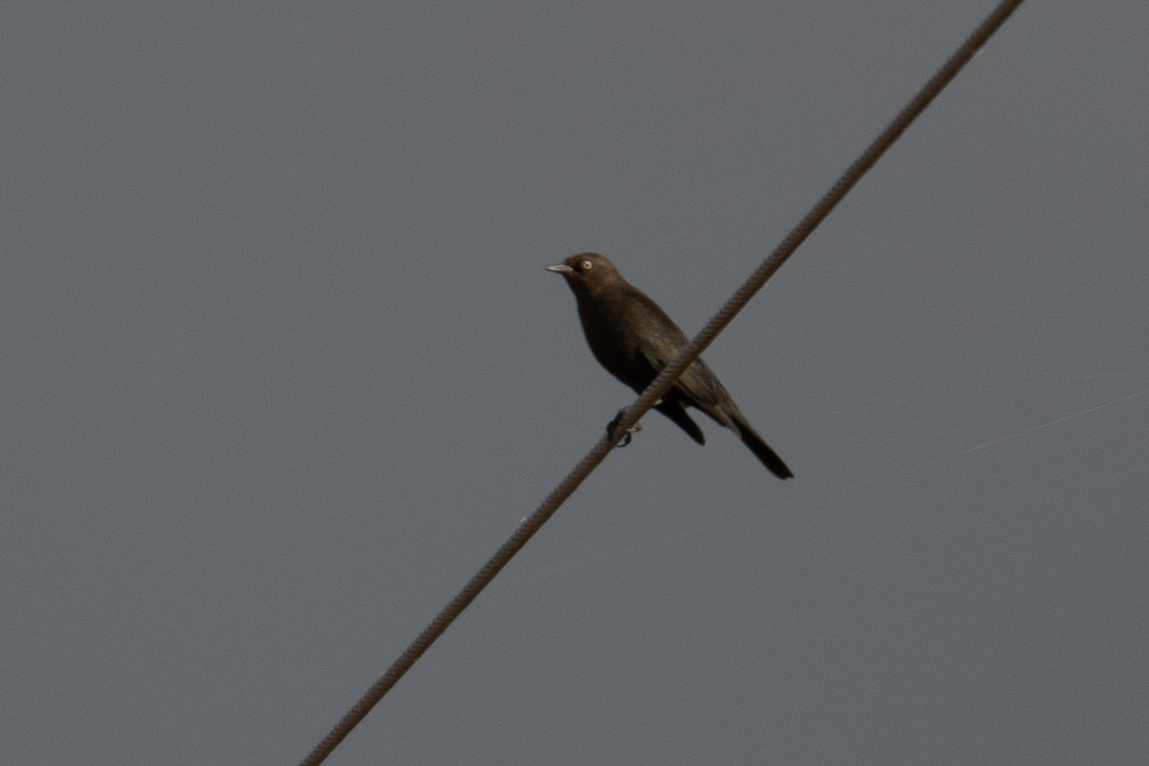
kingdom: Animalia
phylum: Chordata
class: Aves
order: Passeriformes
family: Icteridae
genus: Euphagus
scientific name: Euphagus cyanocephalus
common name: Brewer's blackbird
